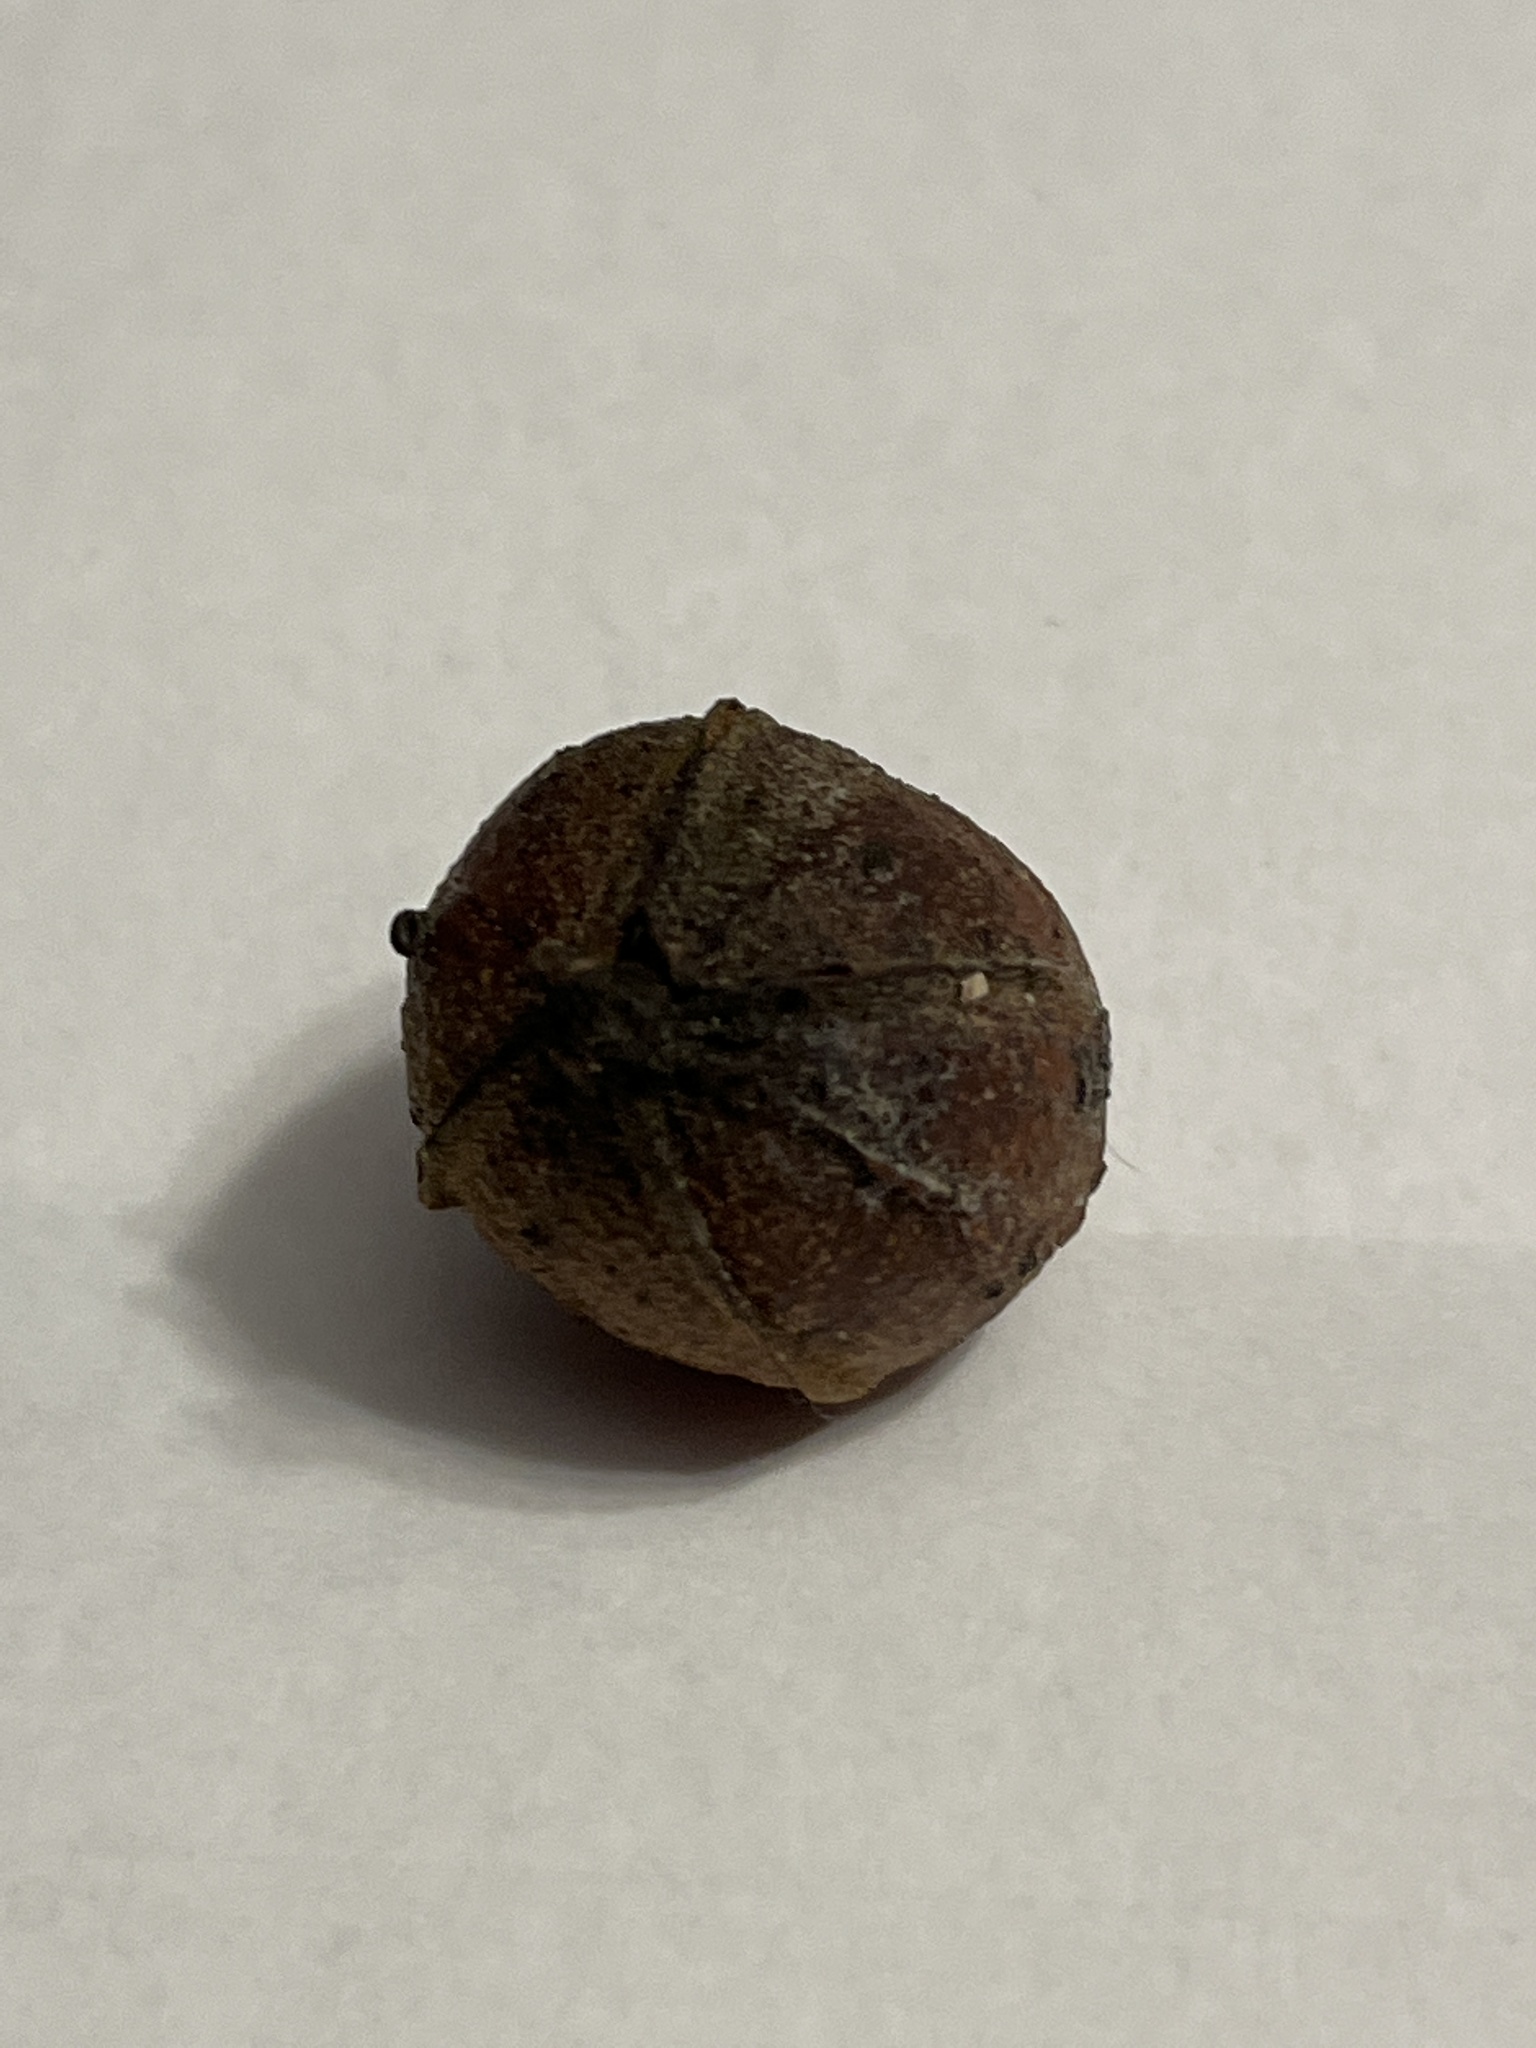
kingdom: Plantae
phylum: Tracheophyta
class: Magnoliopsida
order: Fagales
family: Juglandaceae
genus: Carya
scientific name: Carya cordiformis
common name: Bitternut hickory
